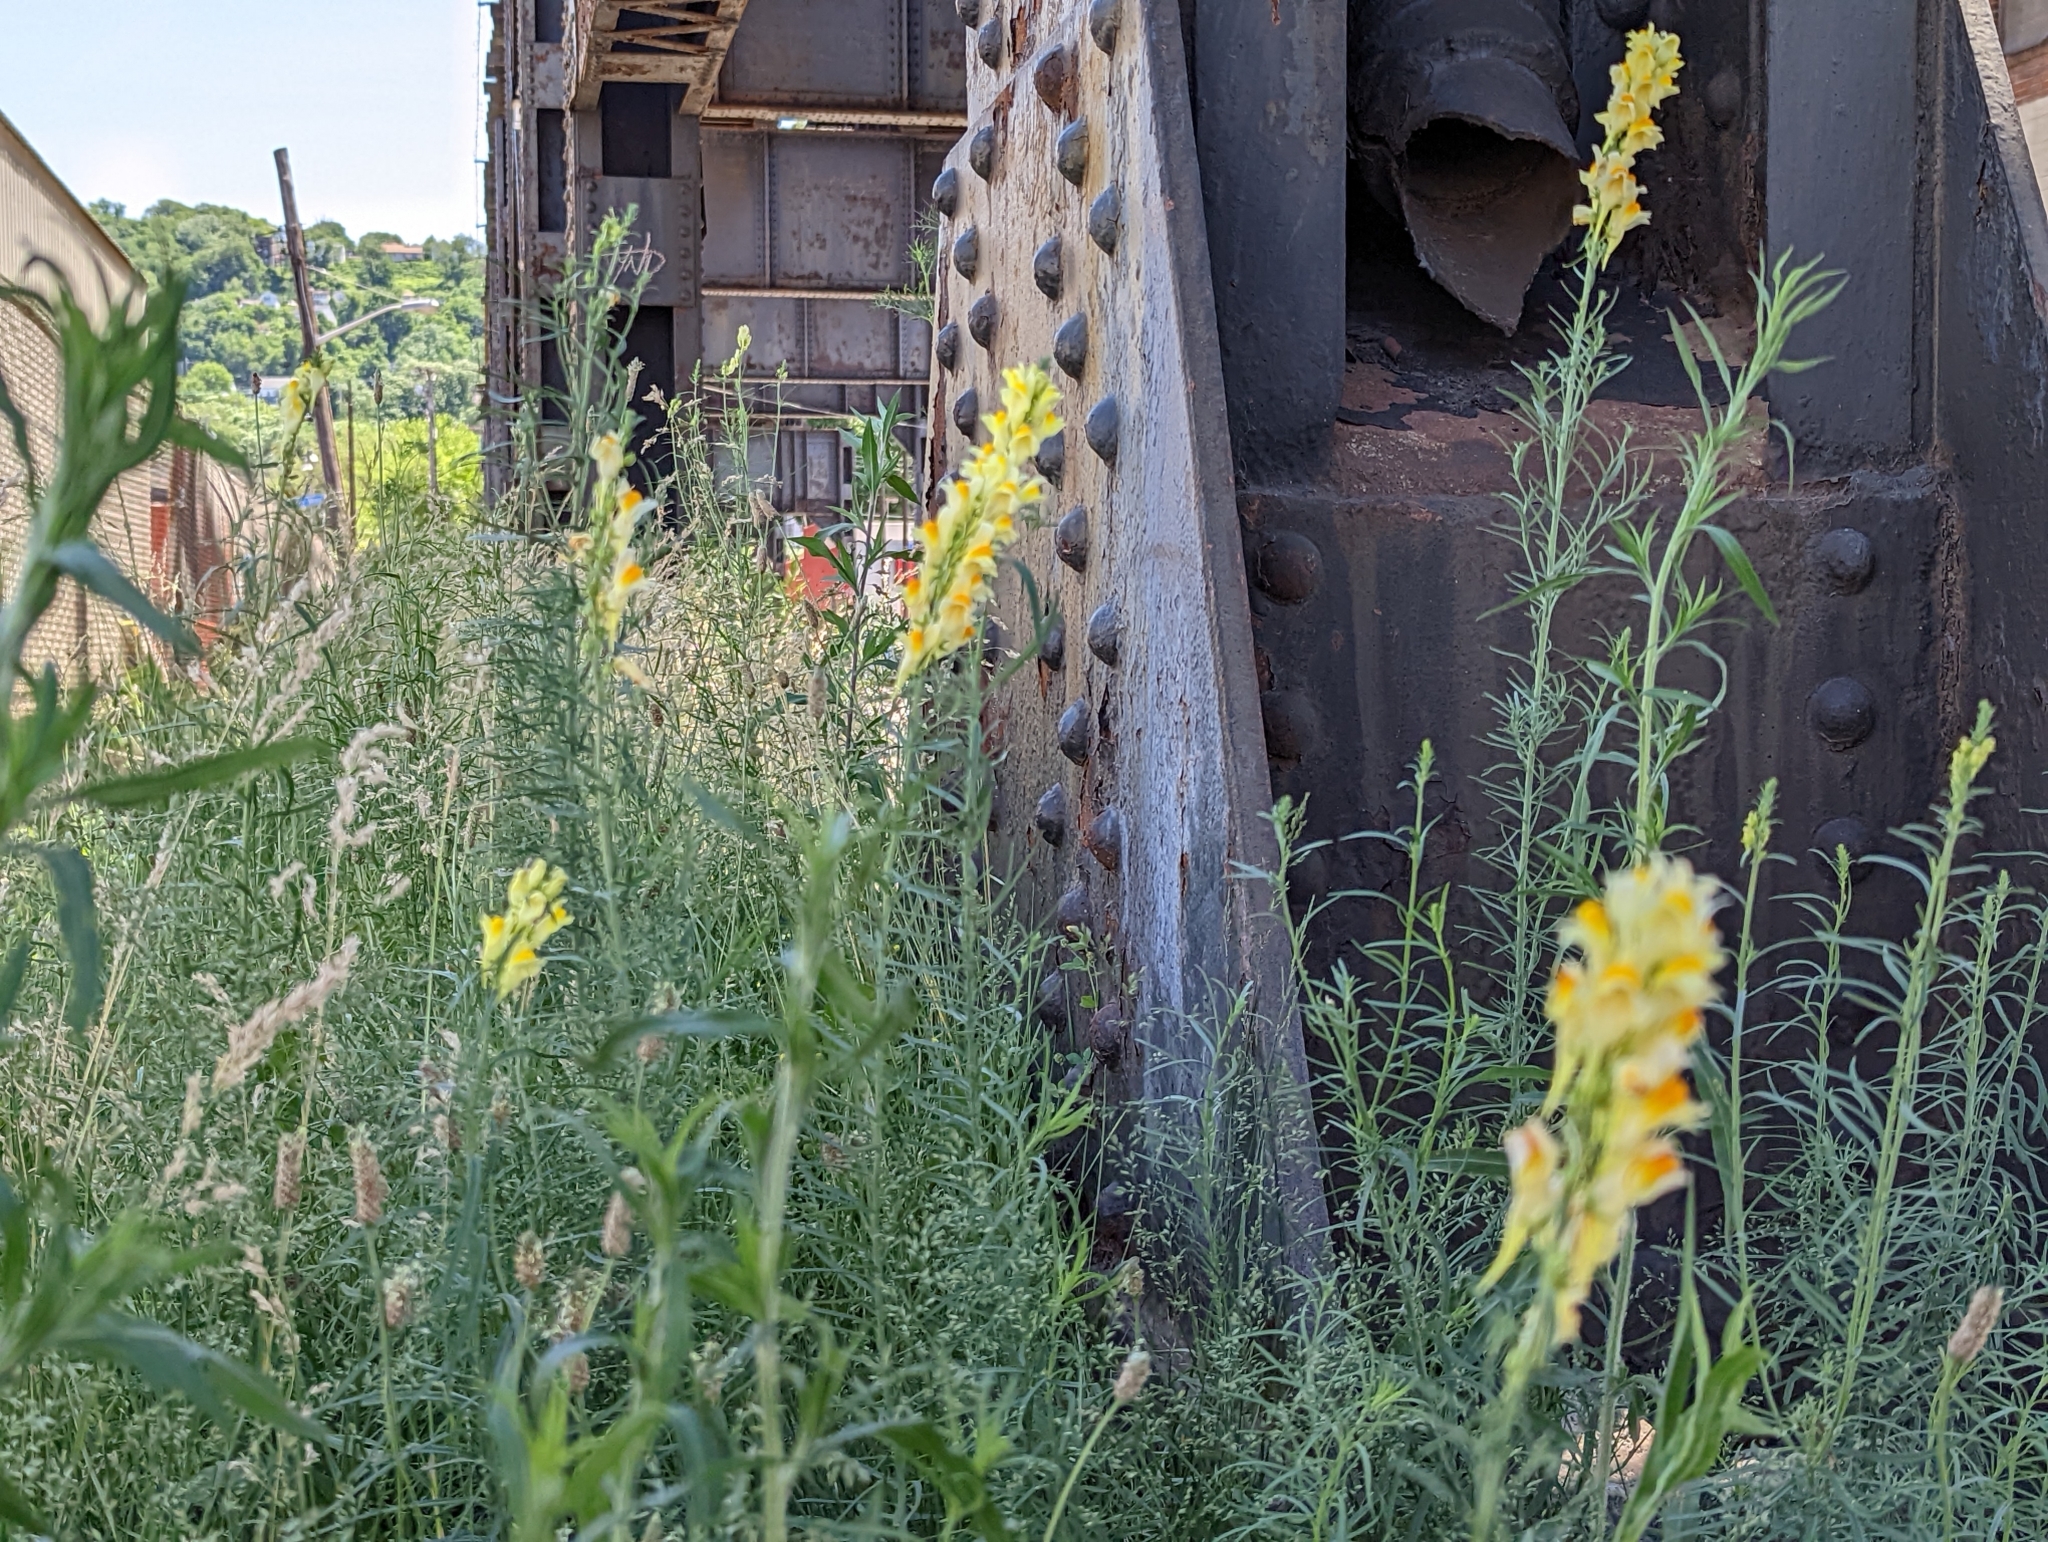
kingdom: Plantae
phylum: Tracheophyta
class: Magnoliopsida
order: Lamiales
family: Plantaginaceae
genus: Linaria
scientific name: Linaria vulgaris
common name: Butter and eggs
